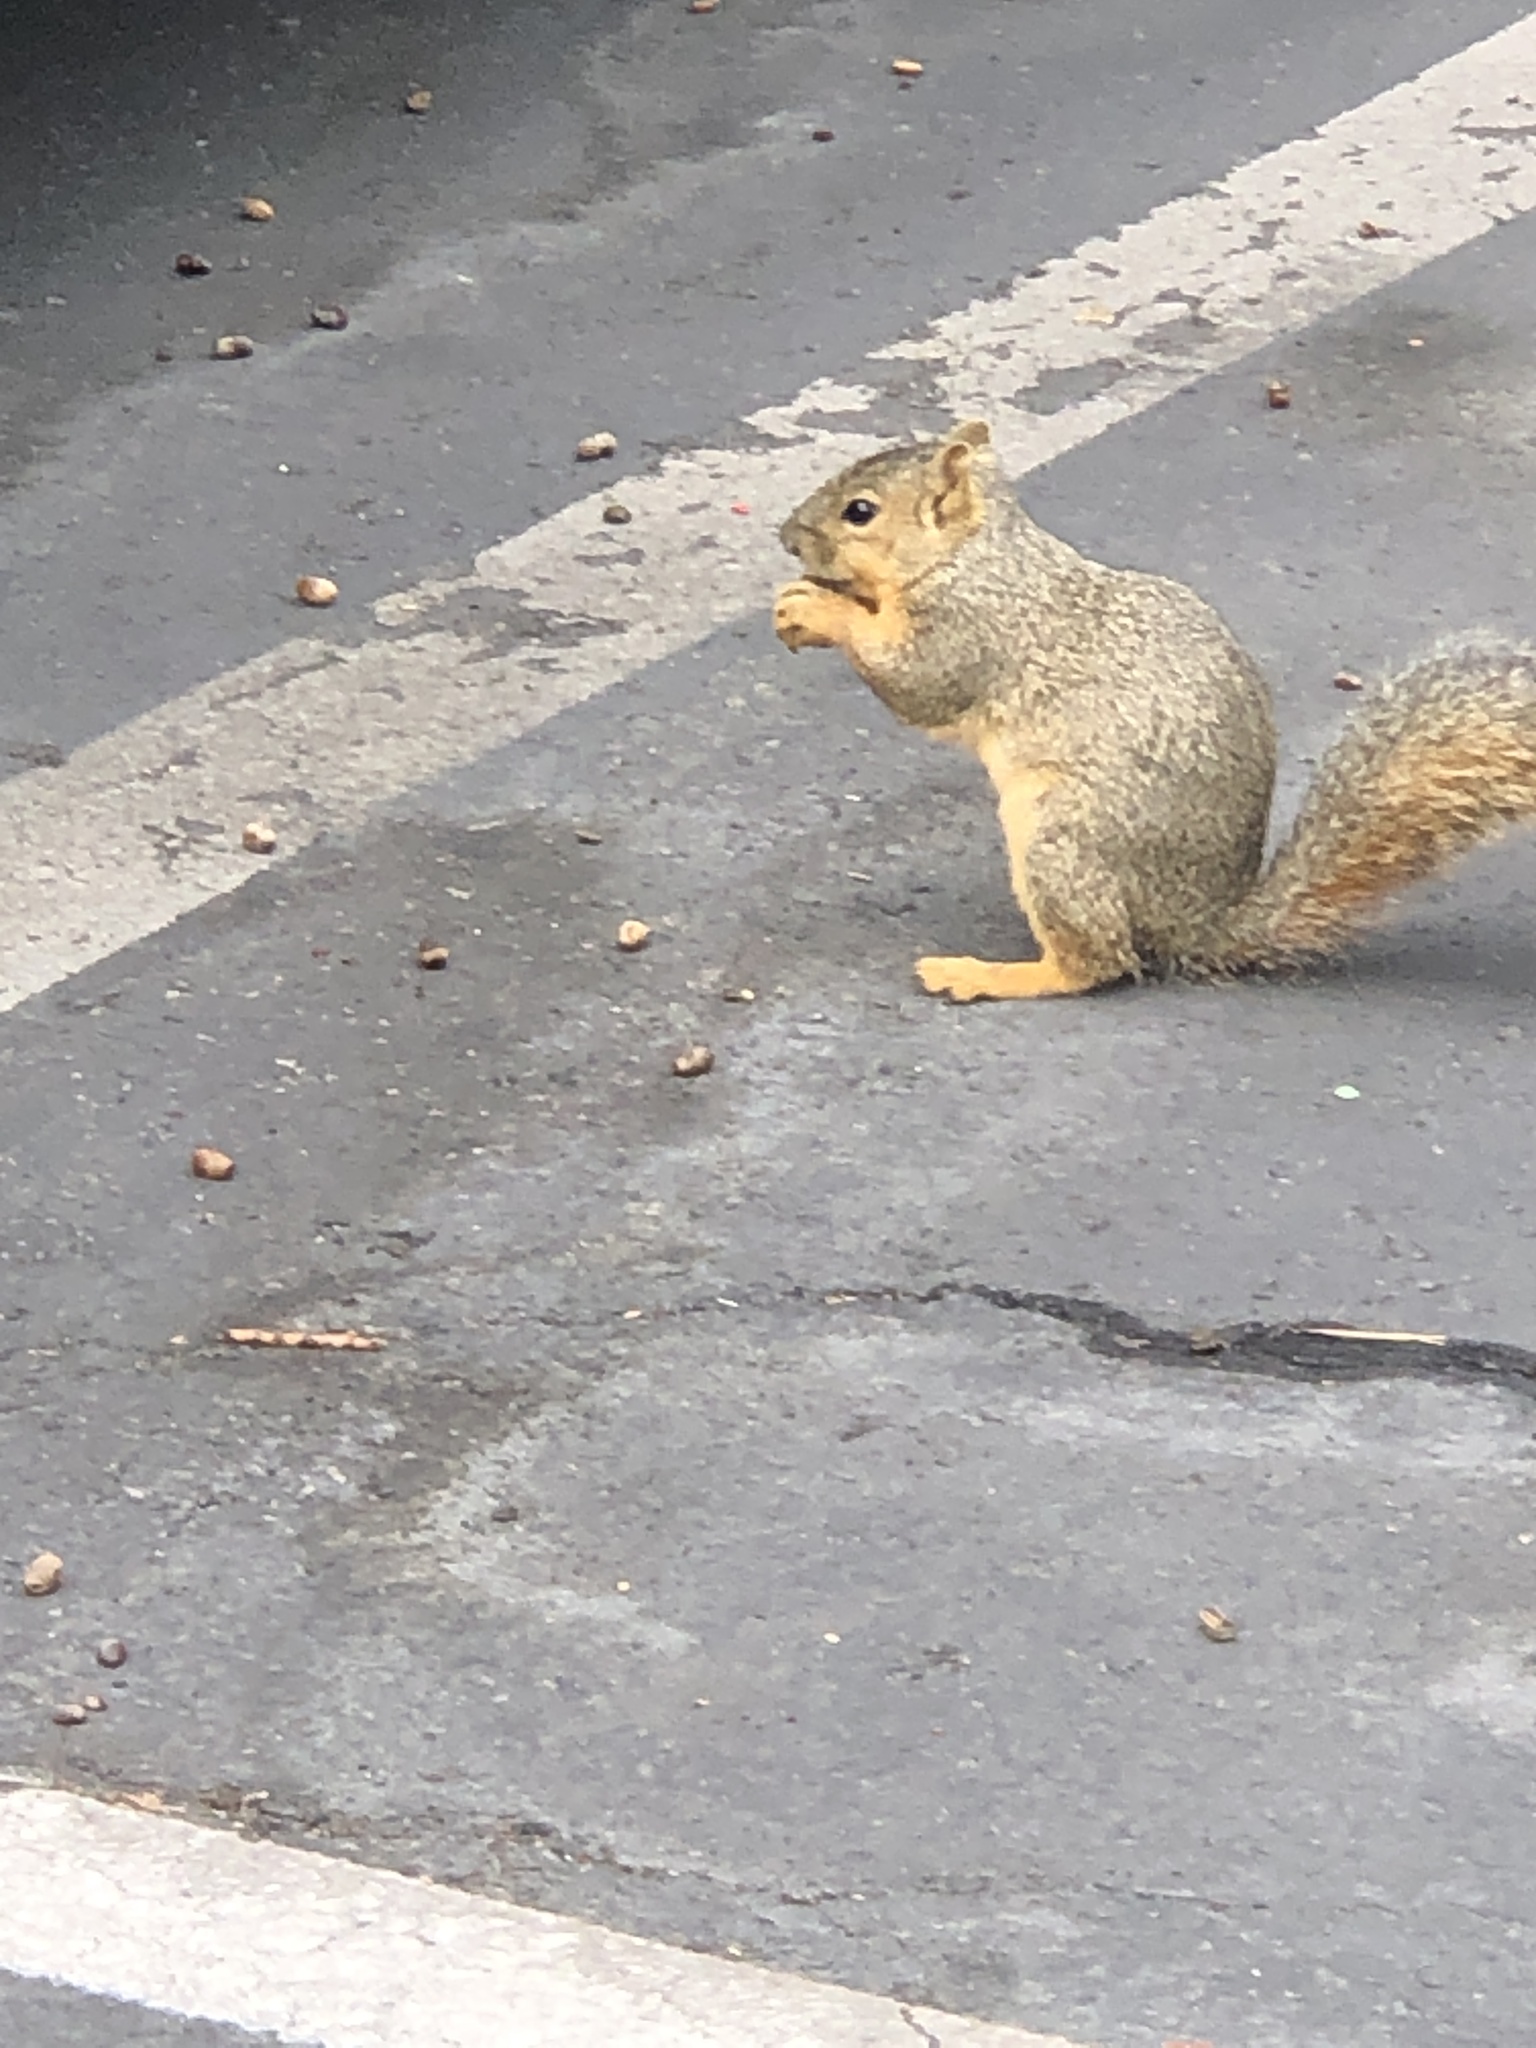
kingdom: Animalia
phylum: Chordata
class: Mammalia
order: Rodentia
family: Sciuridae
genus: Sciurus
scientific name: Sciurus niger
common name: Fox squirrel
